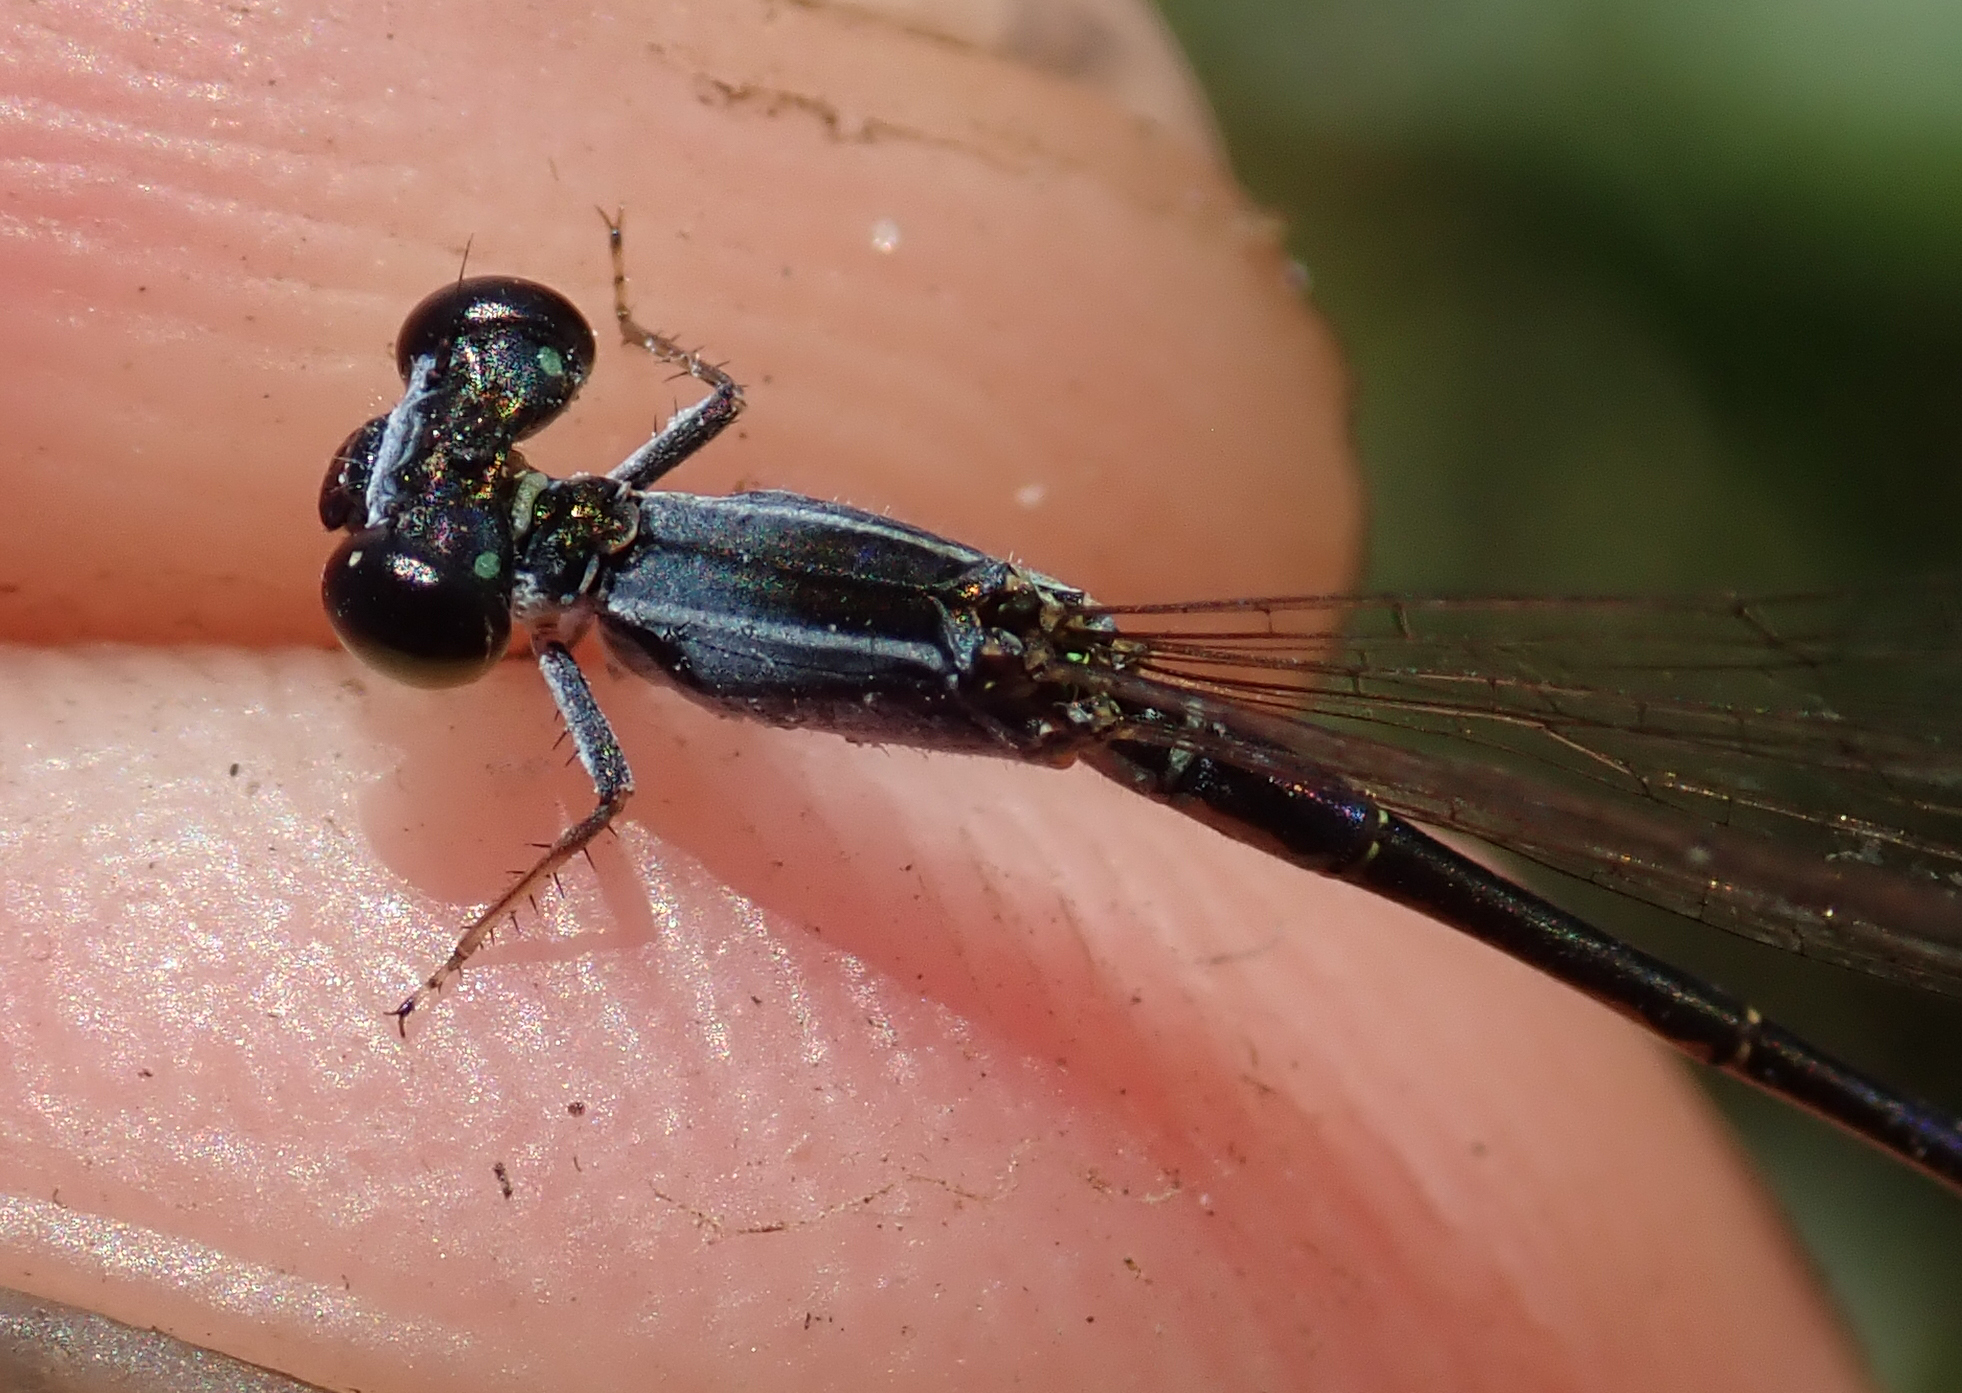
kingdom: Animalia
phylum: Arthropoda
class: Insecta
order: Odonata
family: Coenagrionidae
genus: Agriocnemis
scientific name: Agriocnemis gratiosa
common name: Gracious wisp
